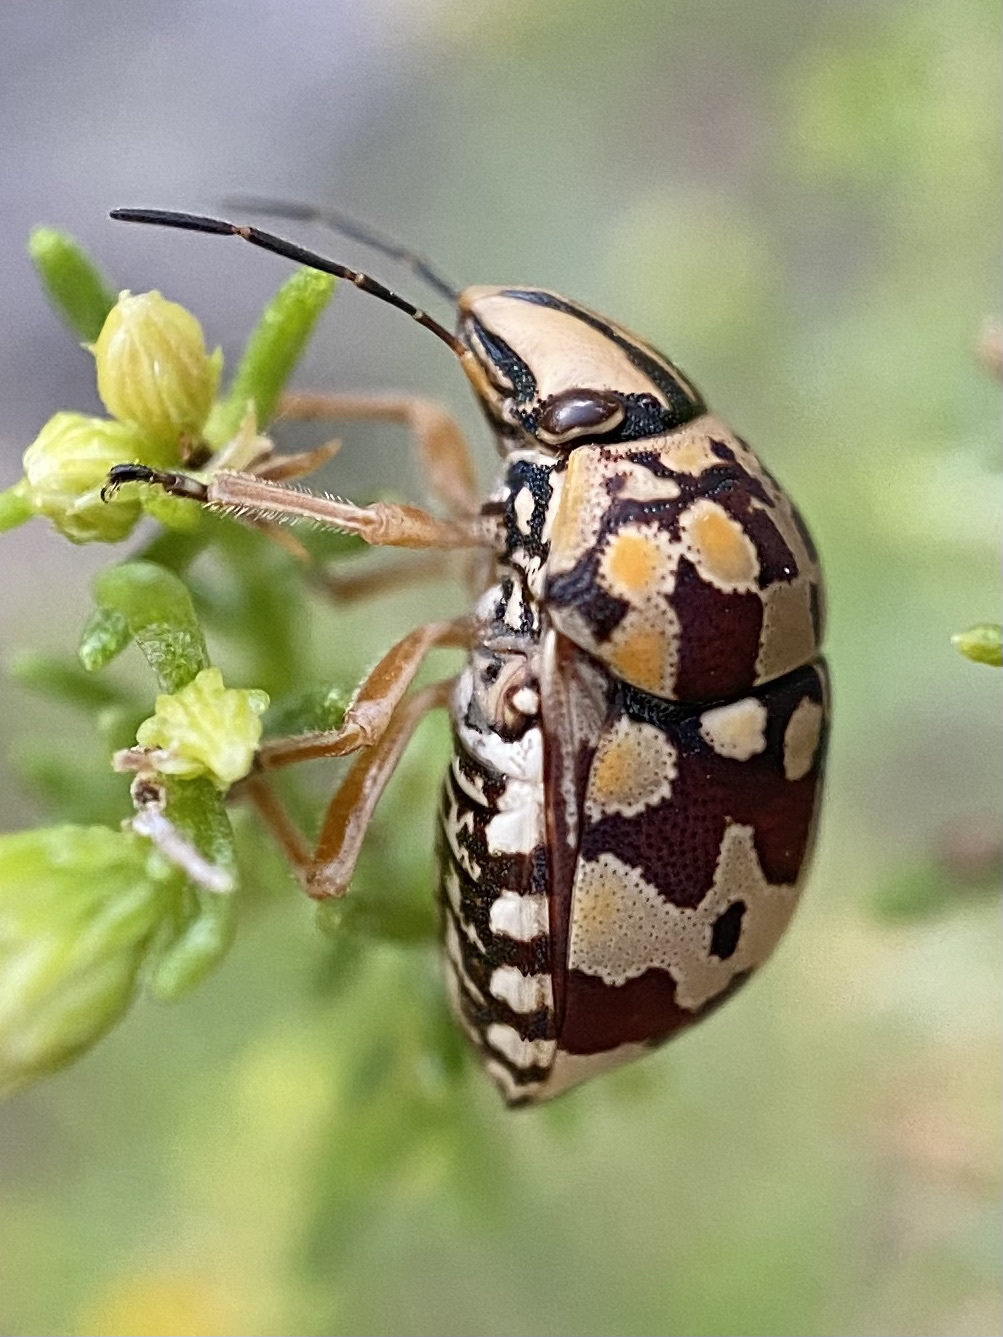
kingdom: Animalia
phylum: Arthropoda
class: Insecta
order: Hemiptera
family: Scutelleridae
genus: Orsilochides
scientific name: Orsilochides
